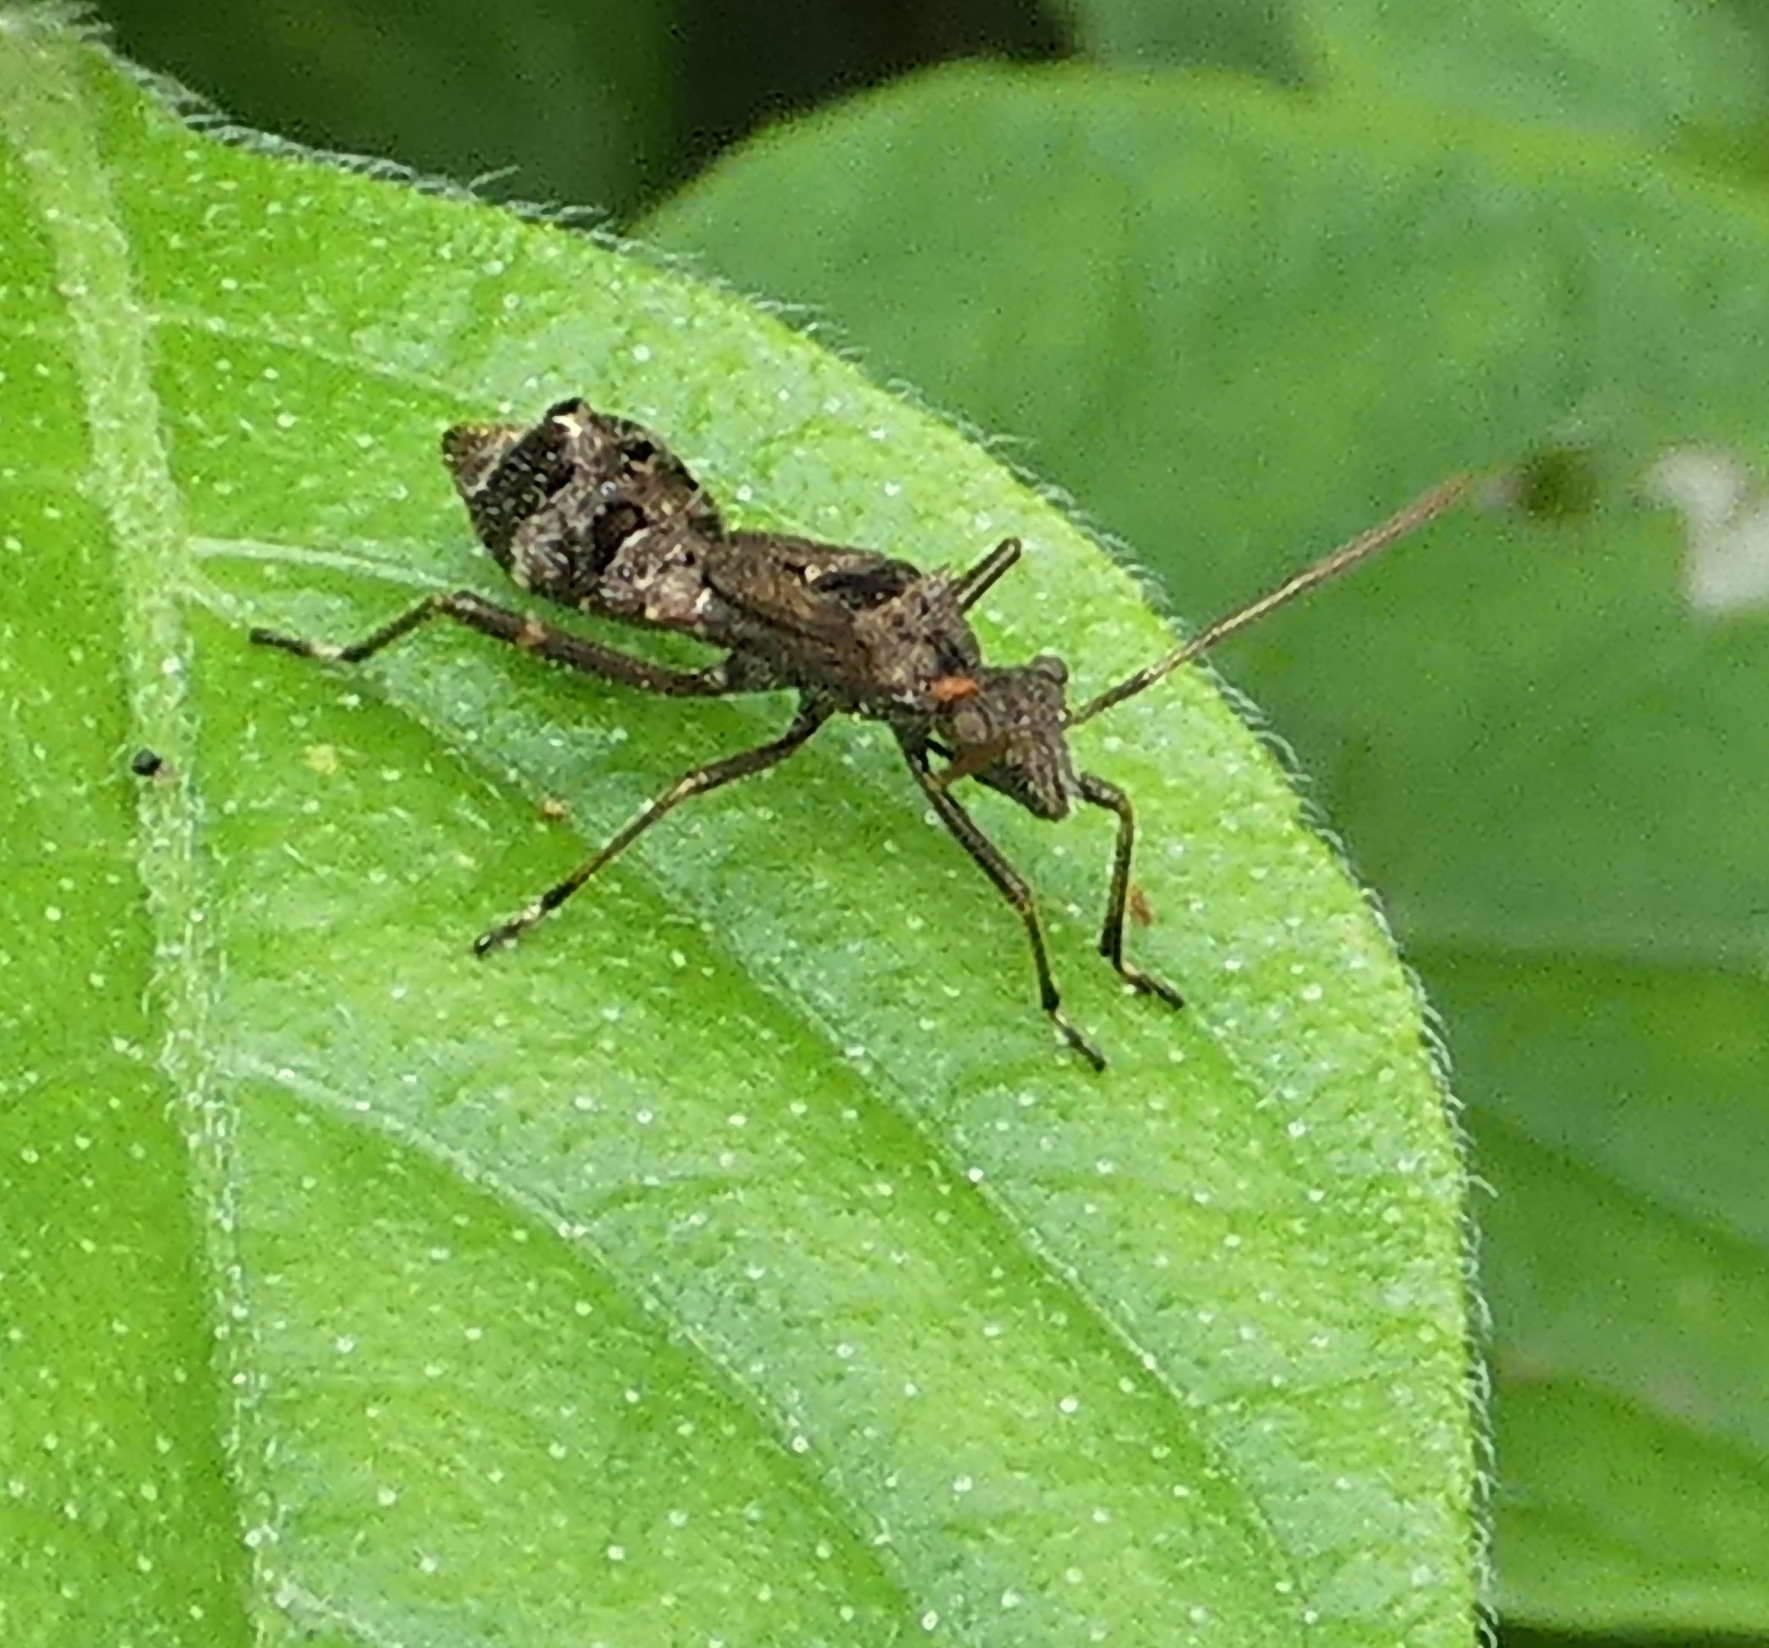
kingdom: Animalia
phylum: Arthropoda
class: Insecta
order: Hemiptera
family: Alydidae
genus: Neomegalotomus
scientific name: Neomegalotomus parvus
